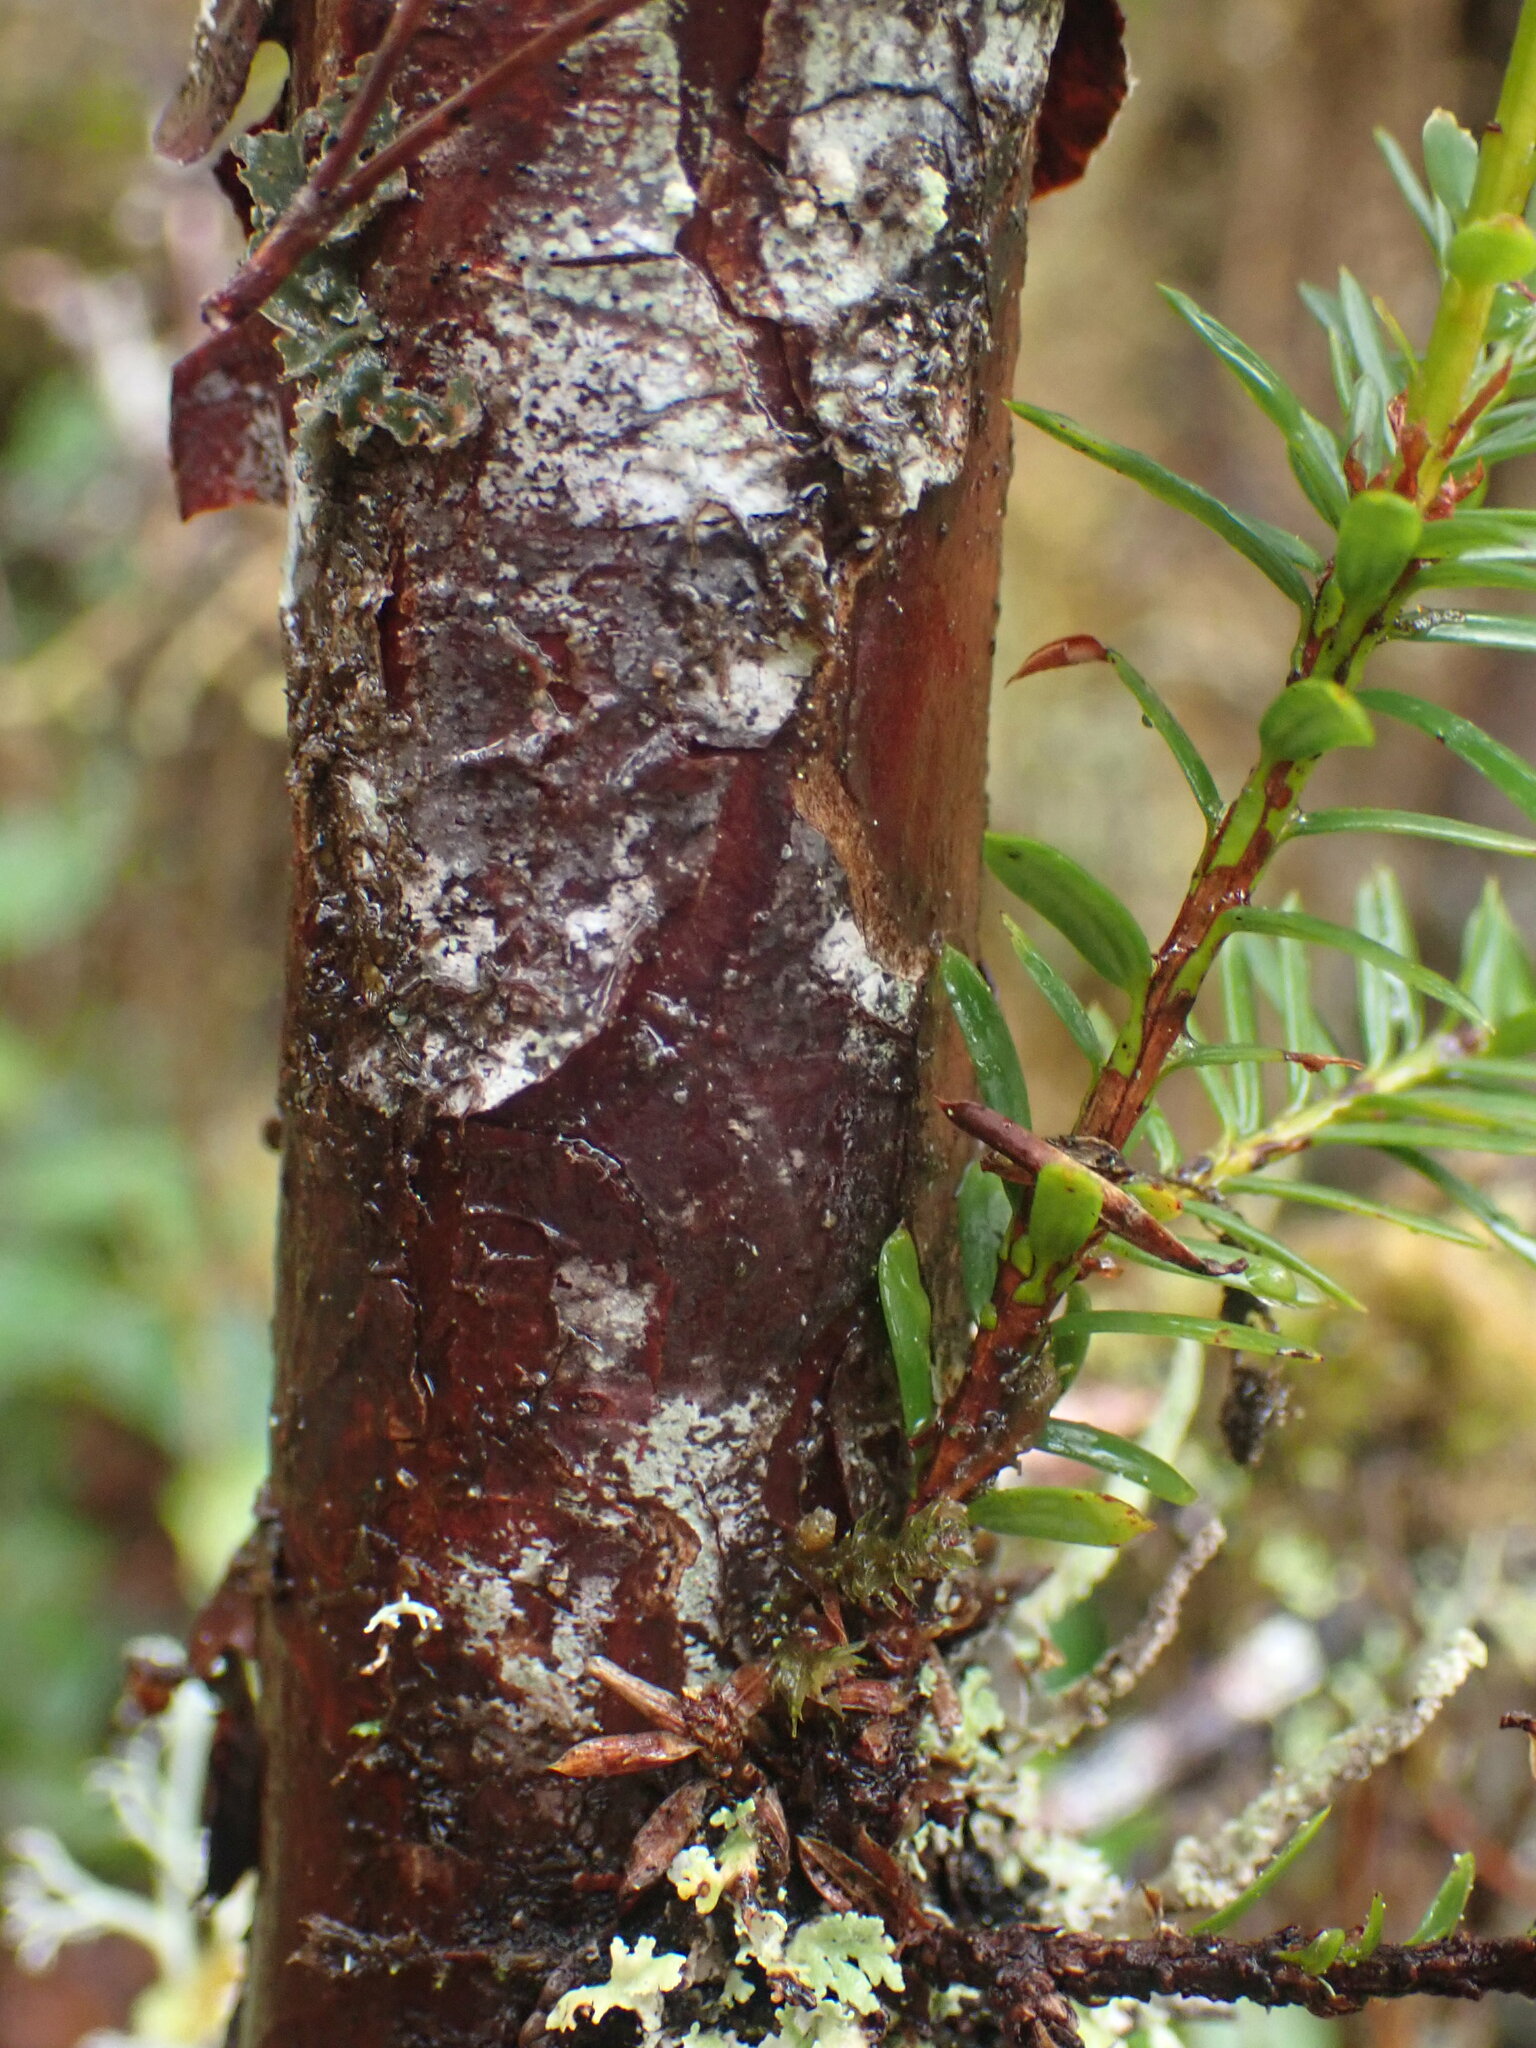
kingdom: Plantae
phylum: Tracheophyta
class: Pinopsida
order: Pinales
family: Taxaceae
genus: Taxus
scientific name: Taxus brevifolia
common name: Pacific yew
